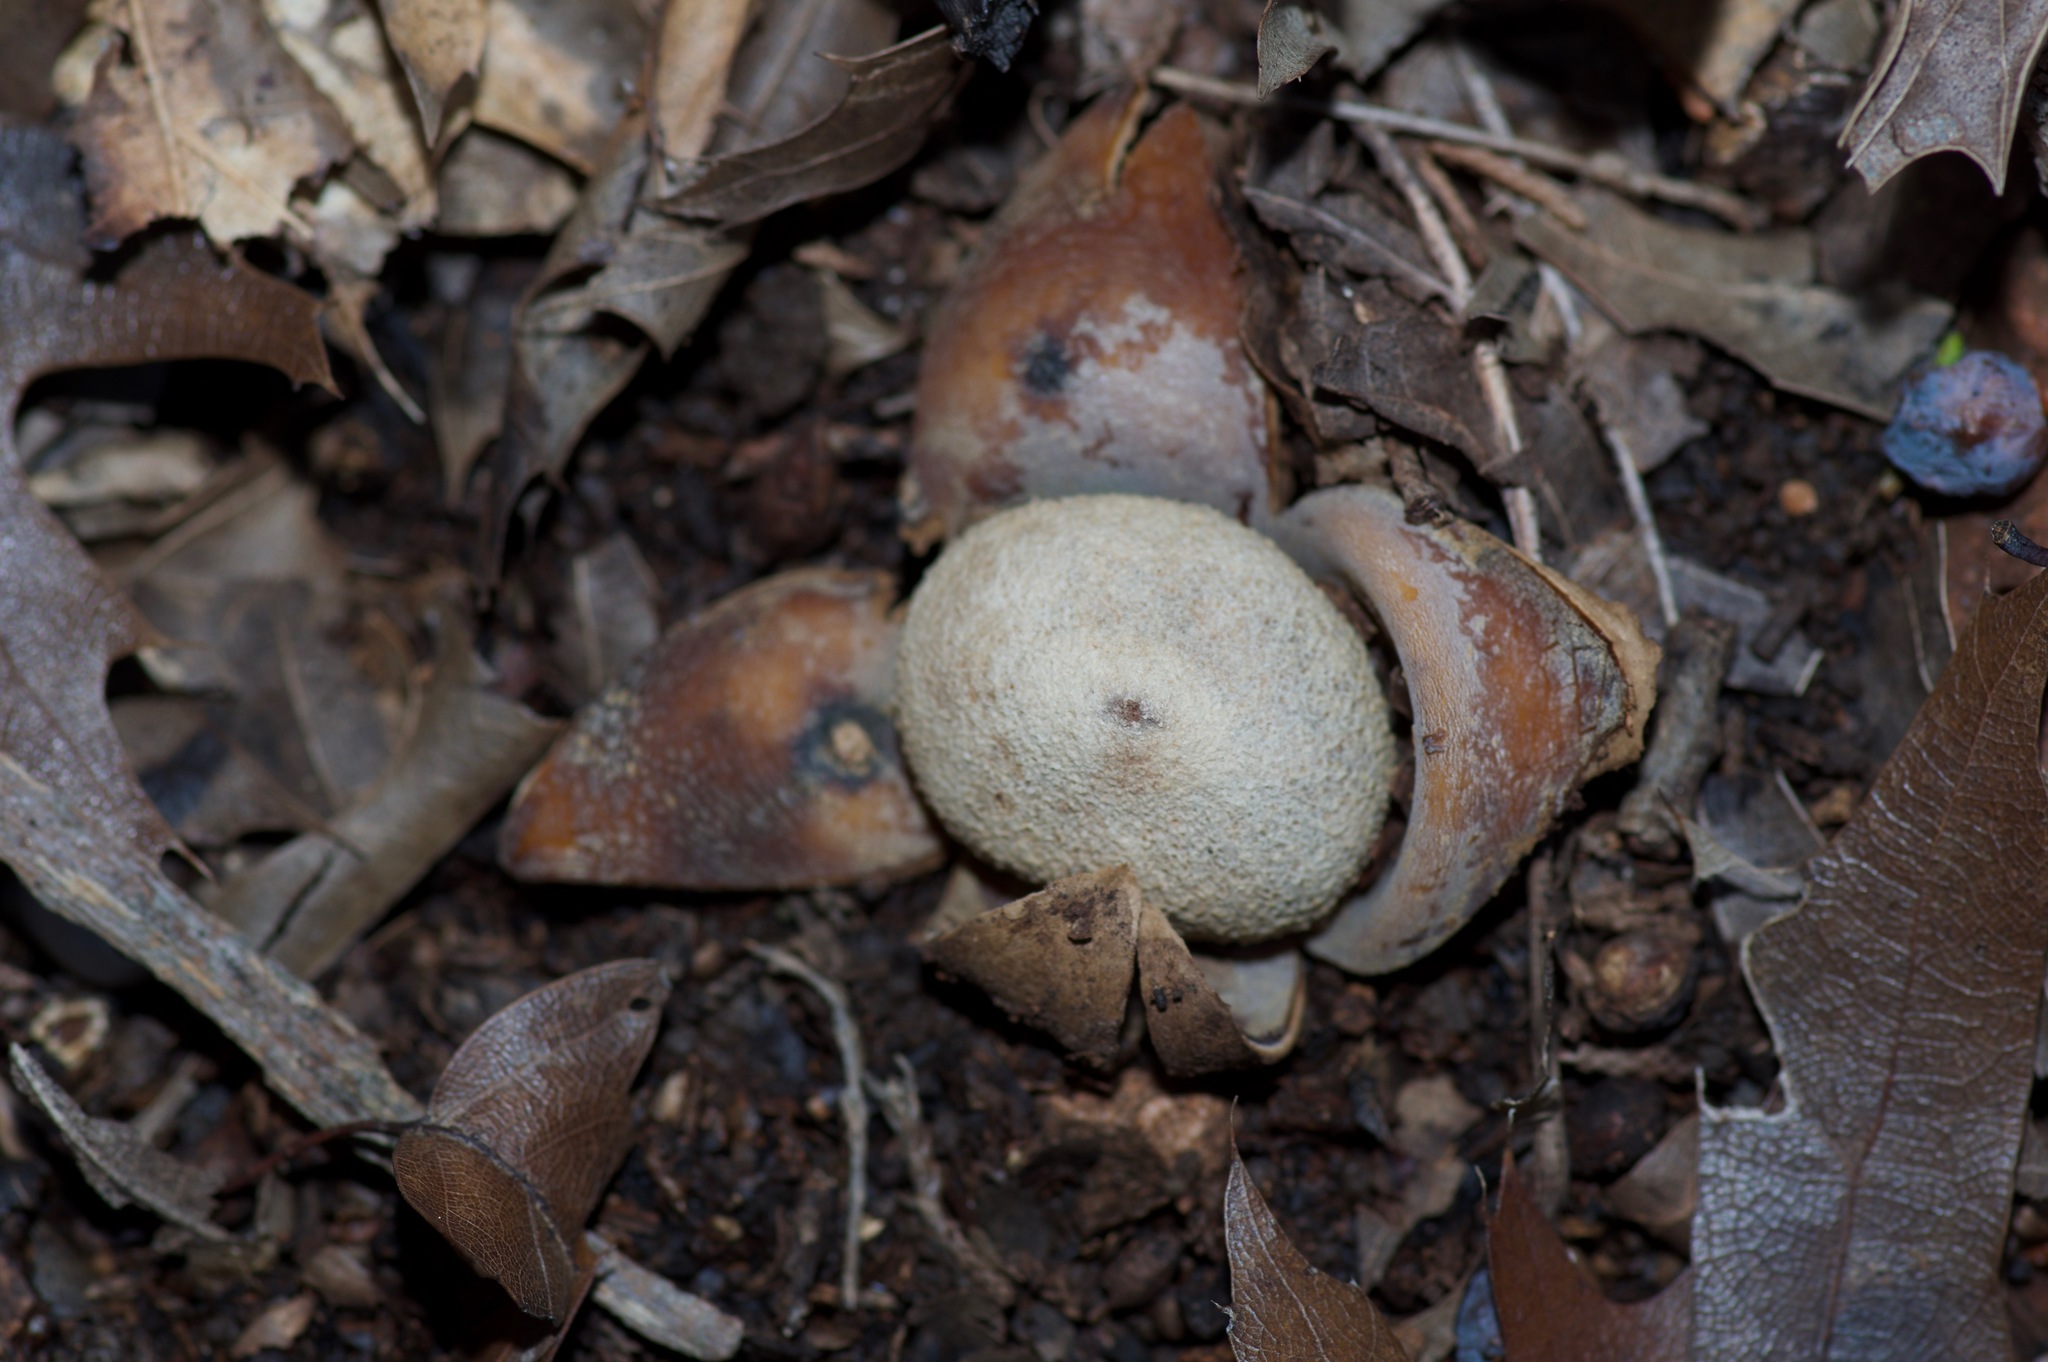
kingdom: Fungi
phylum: Basidiomycota
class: Agaricomycetes
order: Boletales
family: Diplocystidiaceae
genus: Astraeus
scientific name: Astraeus morganii
